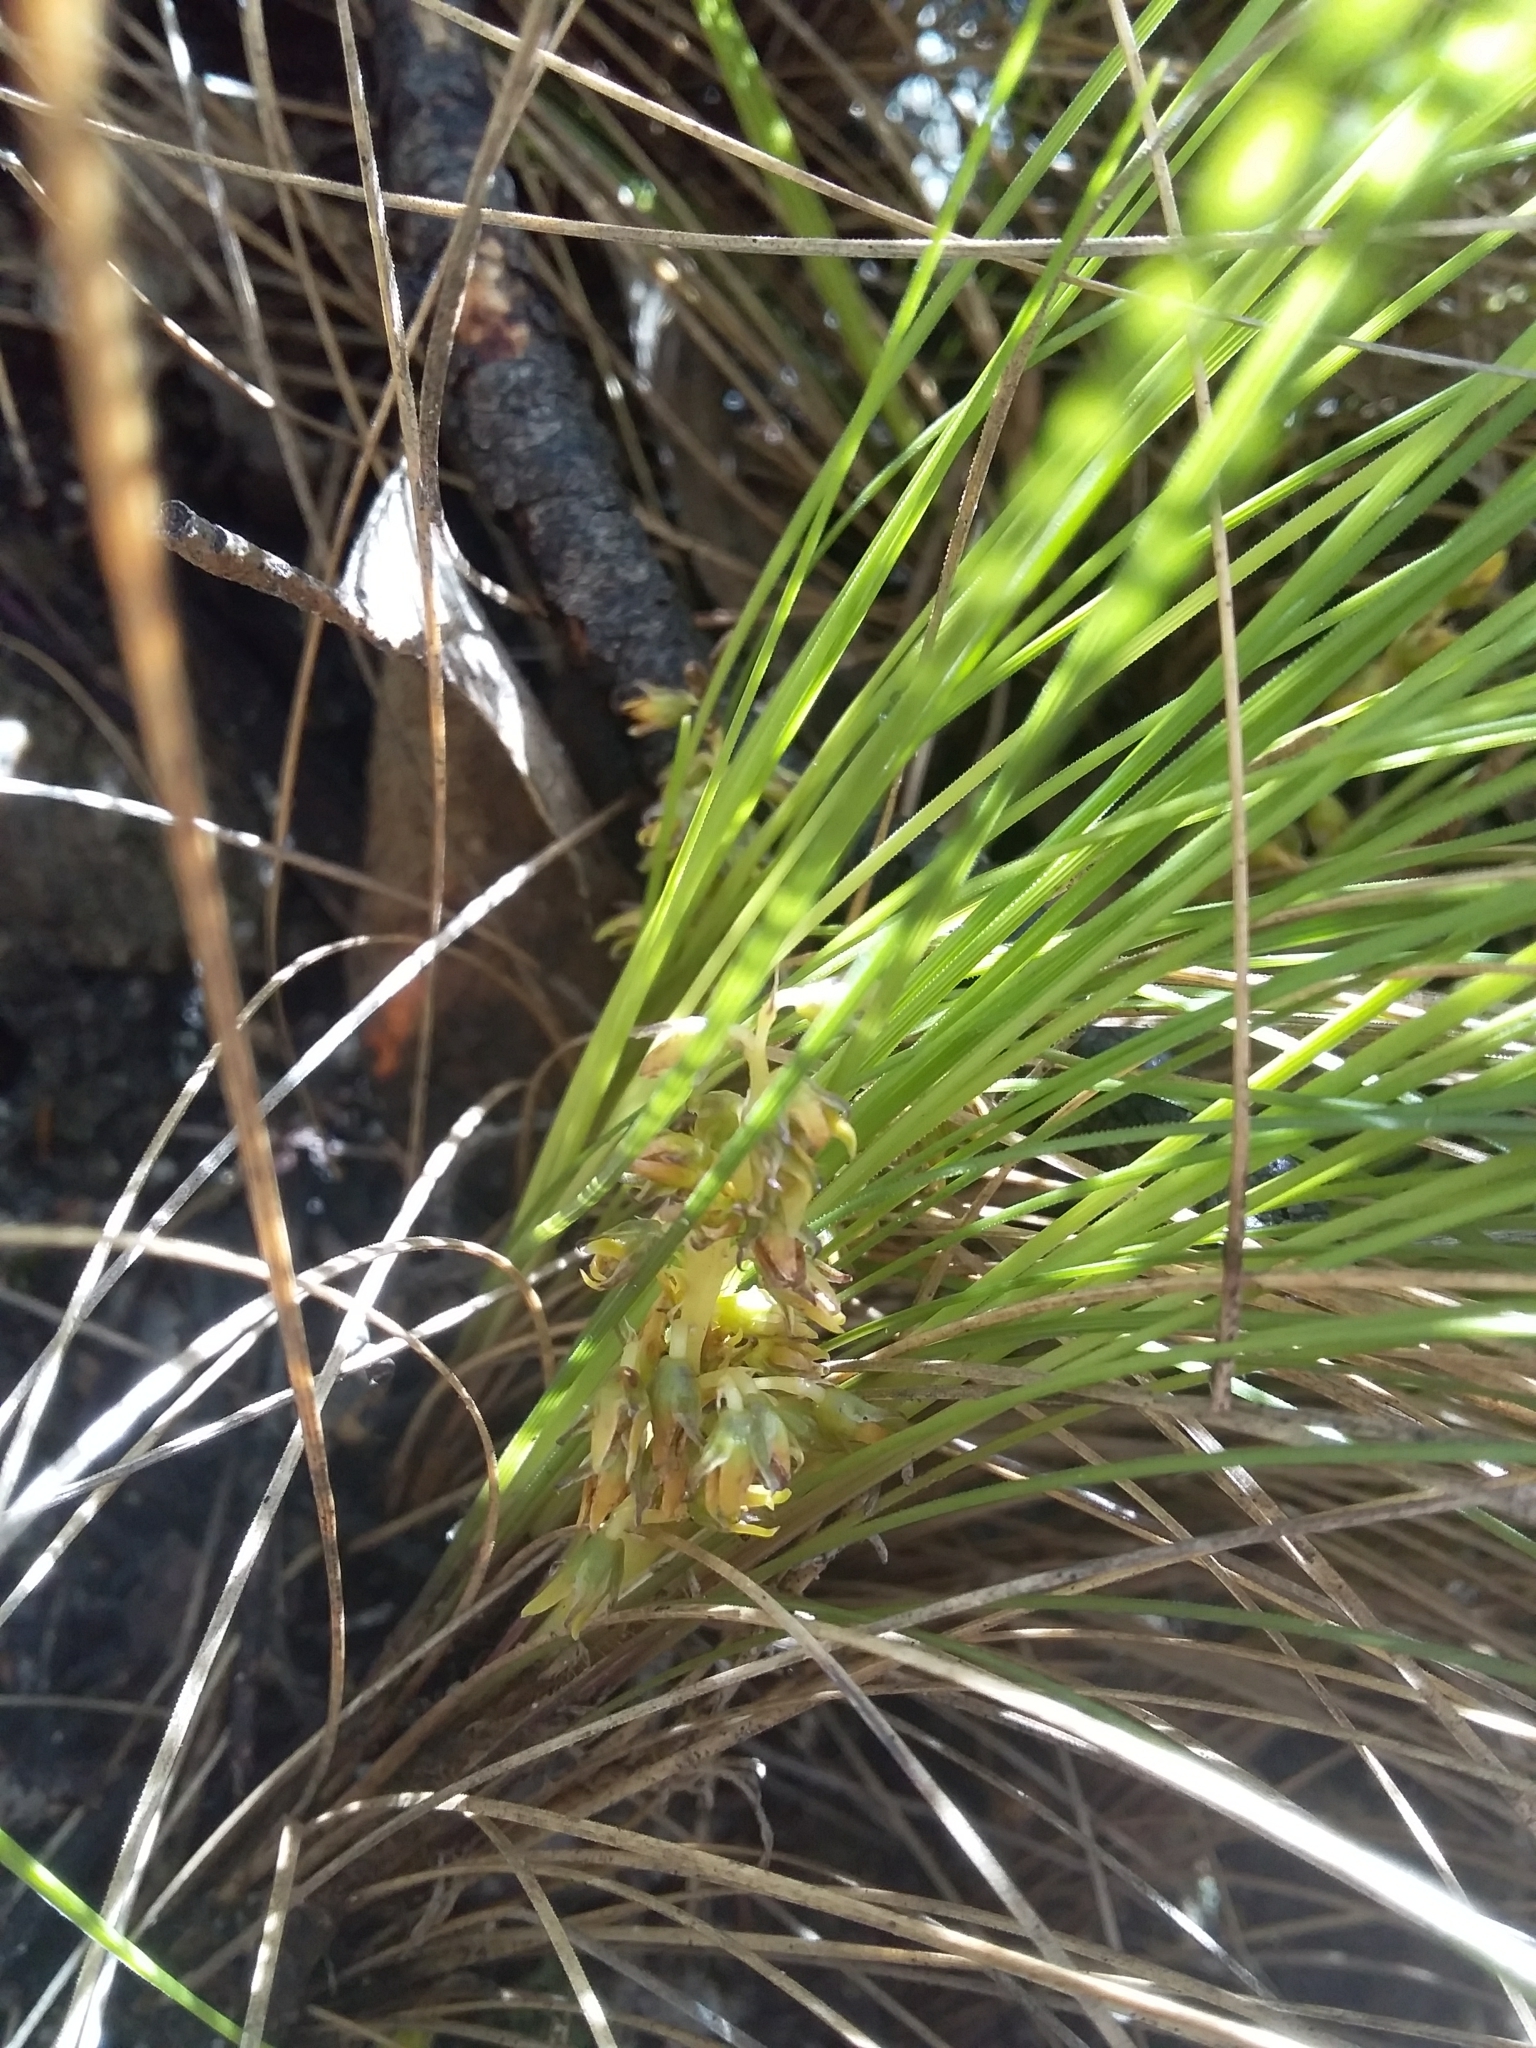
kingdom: Plantae
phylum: Tracheophyta
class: Liliopsida
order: Asparagales
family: Asparagaceae
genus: Lomandra
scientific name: Lomandra fibrata
